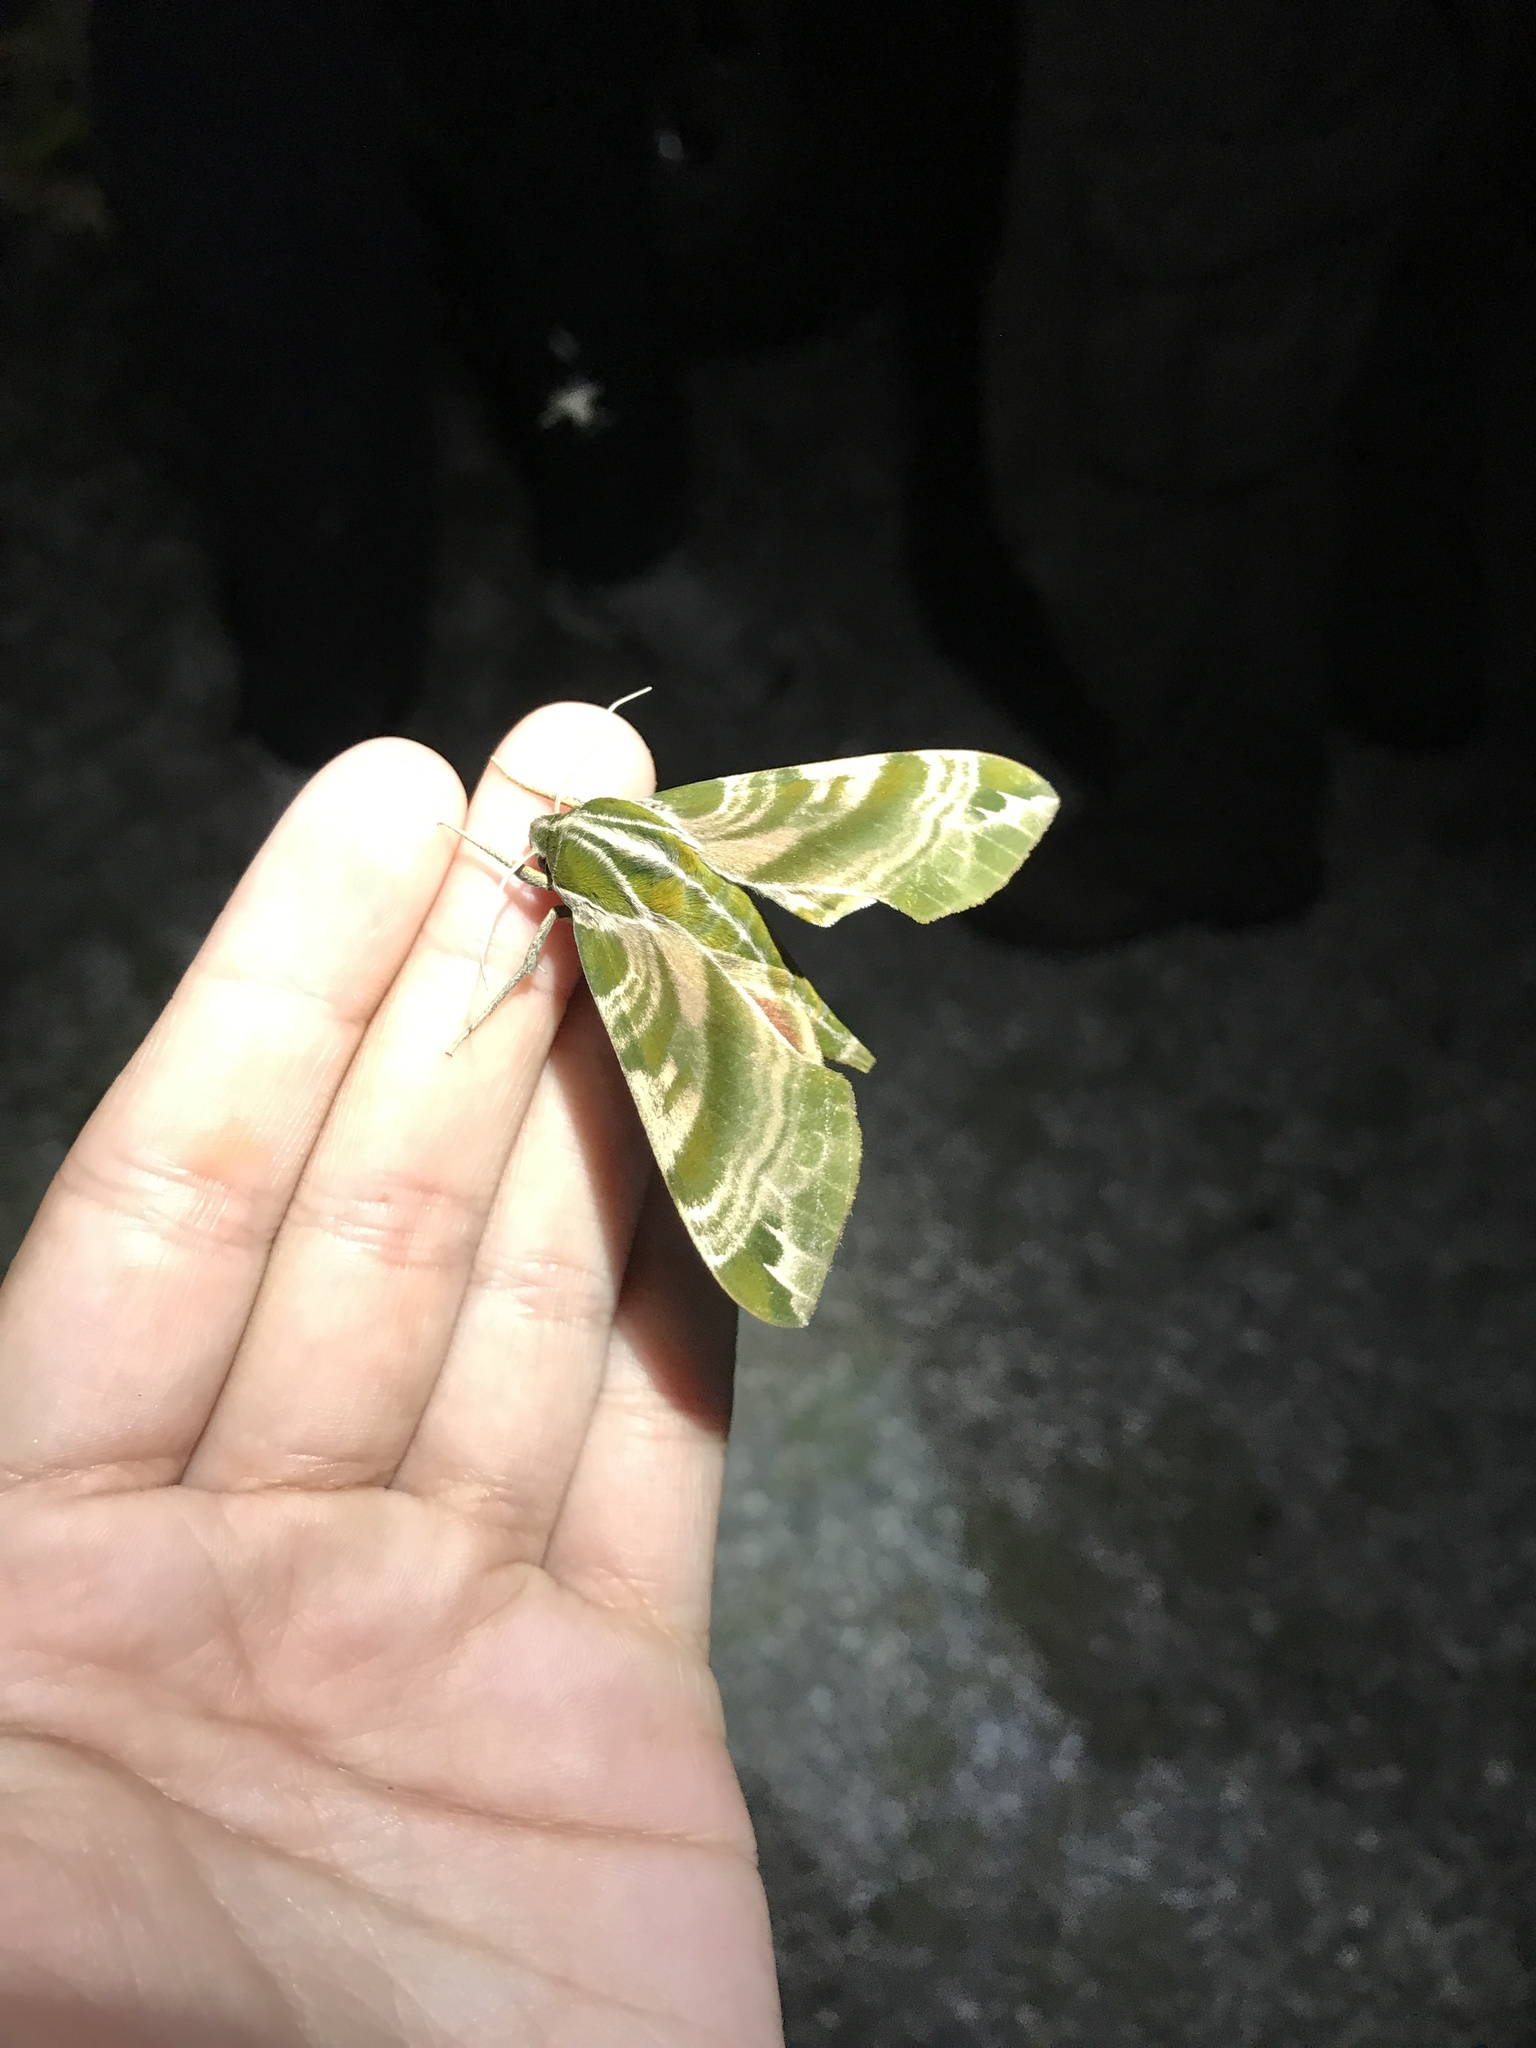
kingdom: Animalia
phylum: Arthropoda
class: Insecta
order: Lepidoptera
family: Sphingidae
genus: Darapsa
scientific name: Darapsa versicolor
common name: Hydrangea sphinx
